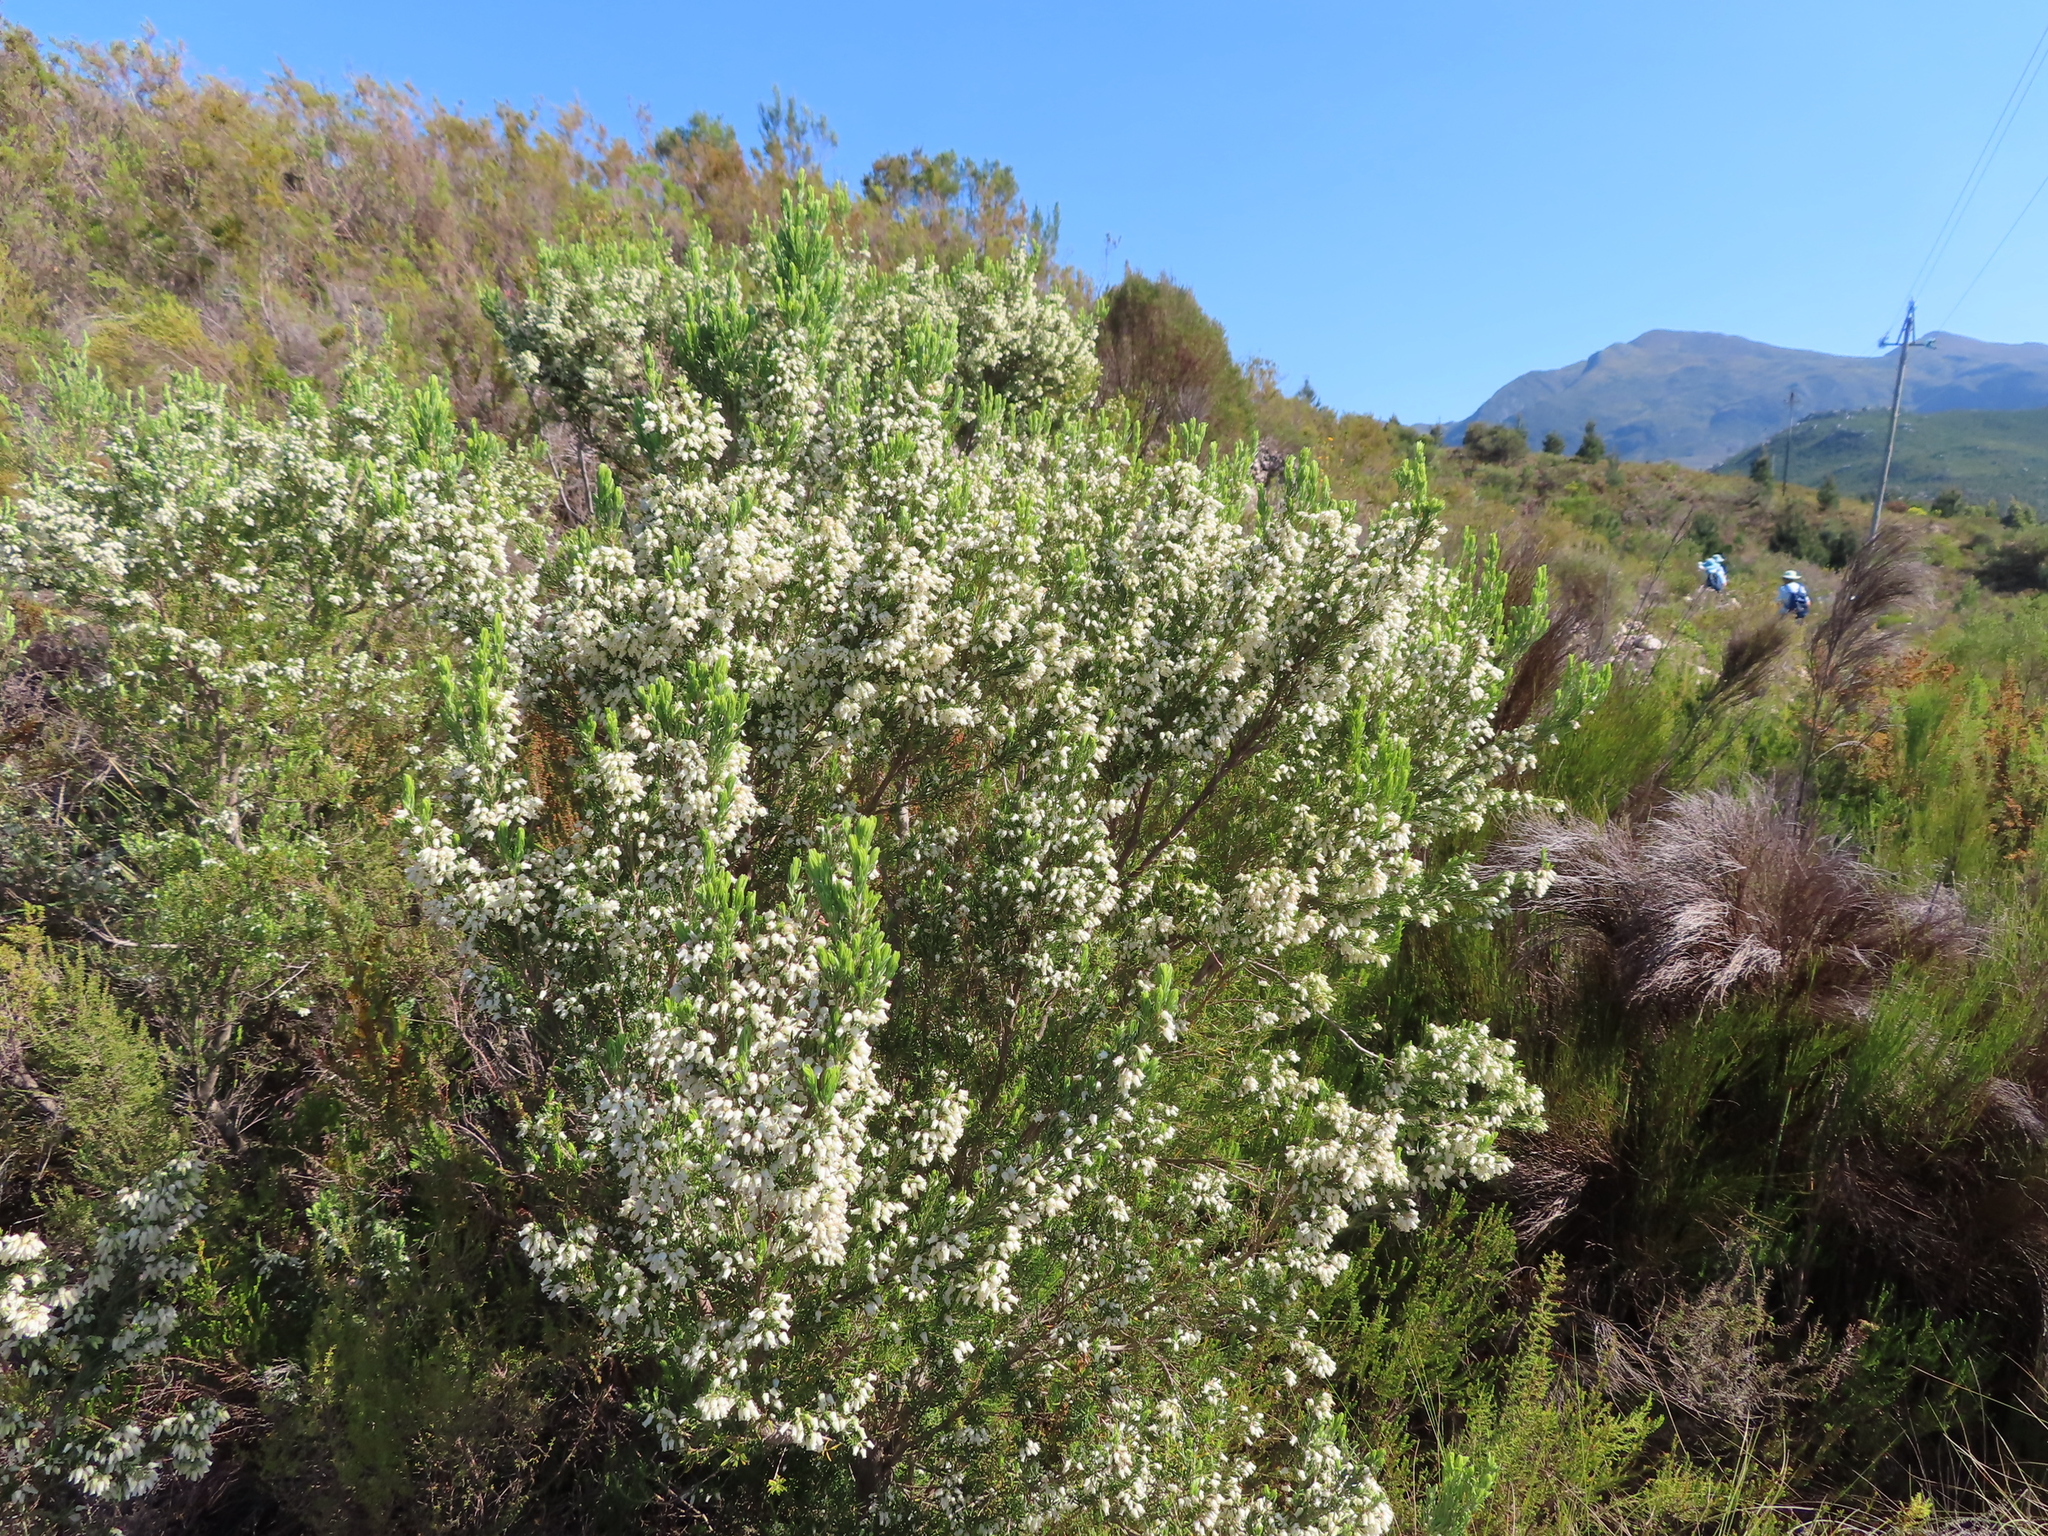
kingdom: Plantae
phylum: Tracheophyta
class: Magnoliopsida
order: Ericales
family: Ericaceae
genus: Erica
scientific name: Erica caffra
